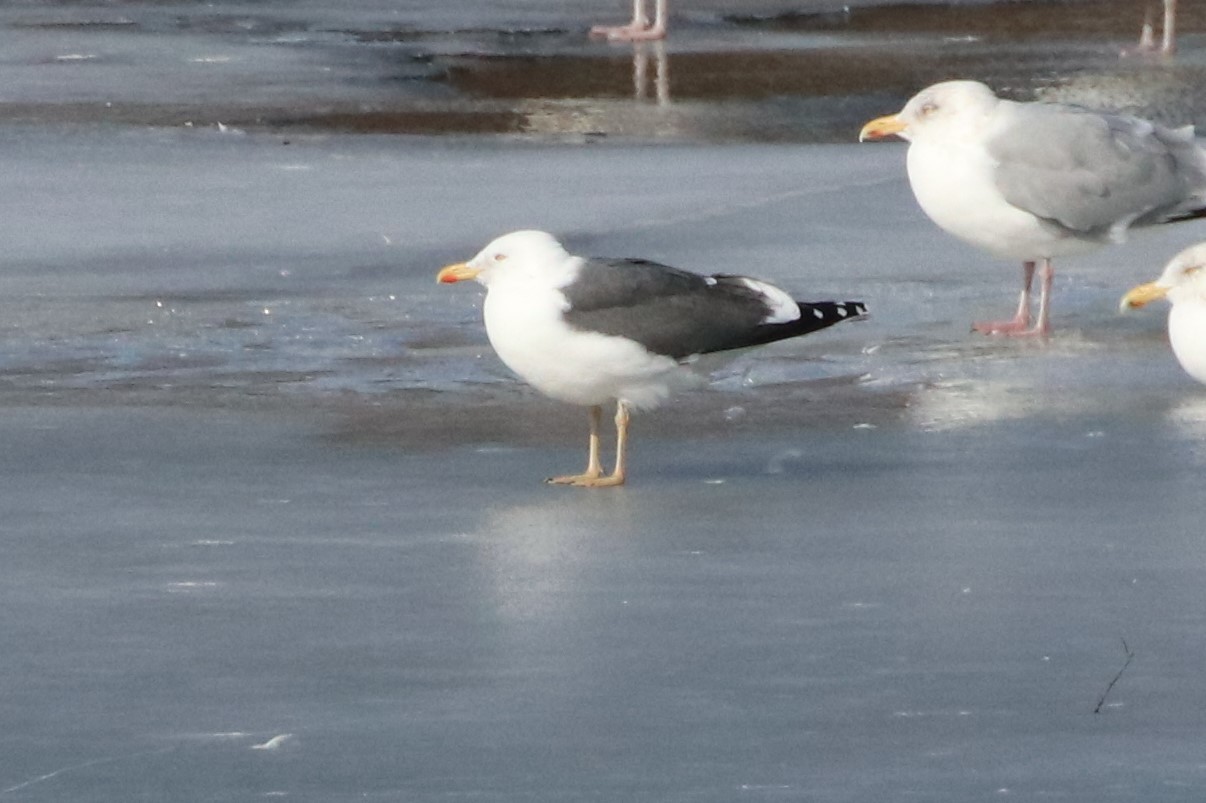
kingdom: Animalia
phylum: Chordata
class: Aves
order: Charadriiformes
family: Laridae
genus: Larus
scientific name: Larus fuscus
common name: Lesser black-backed gull
